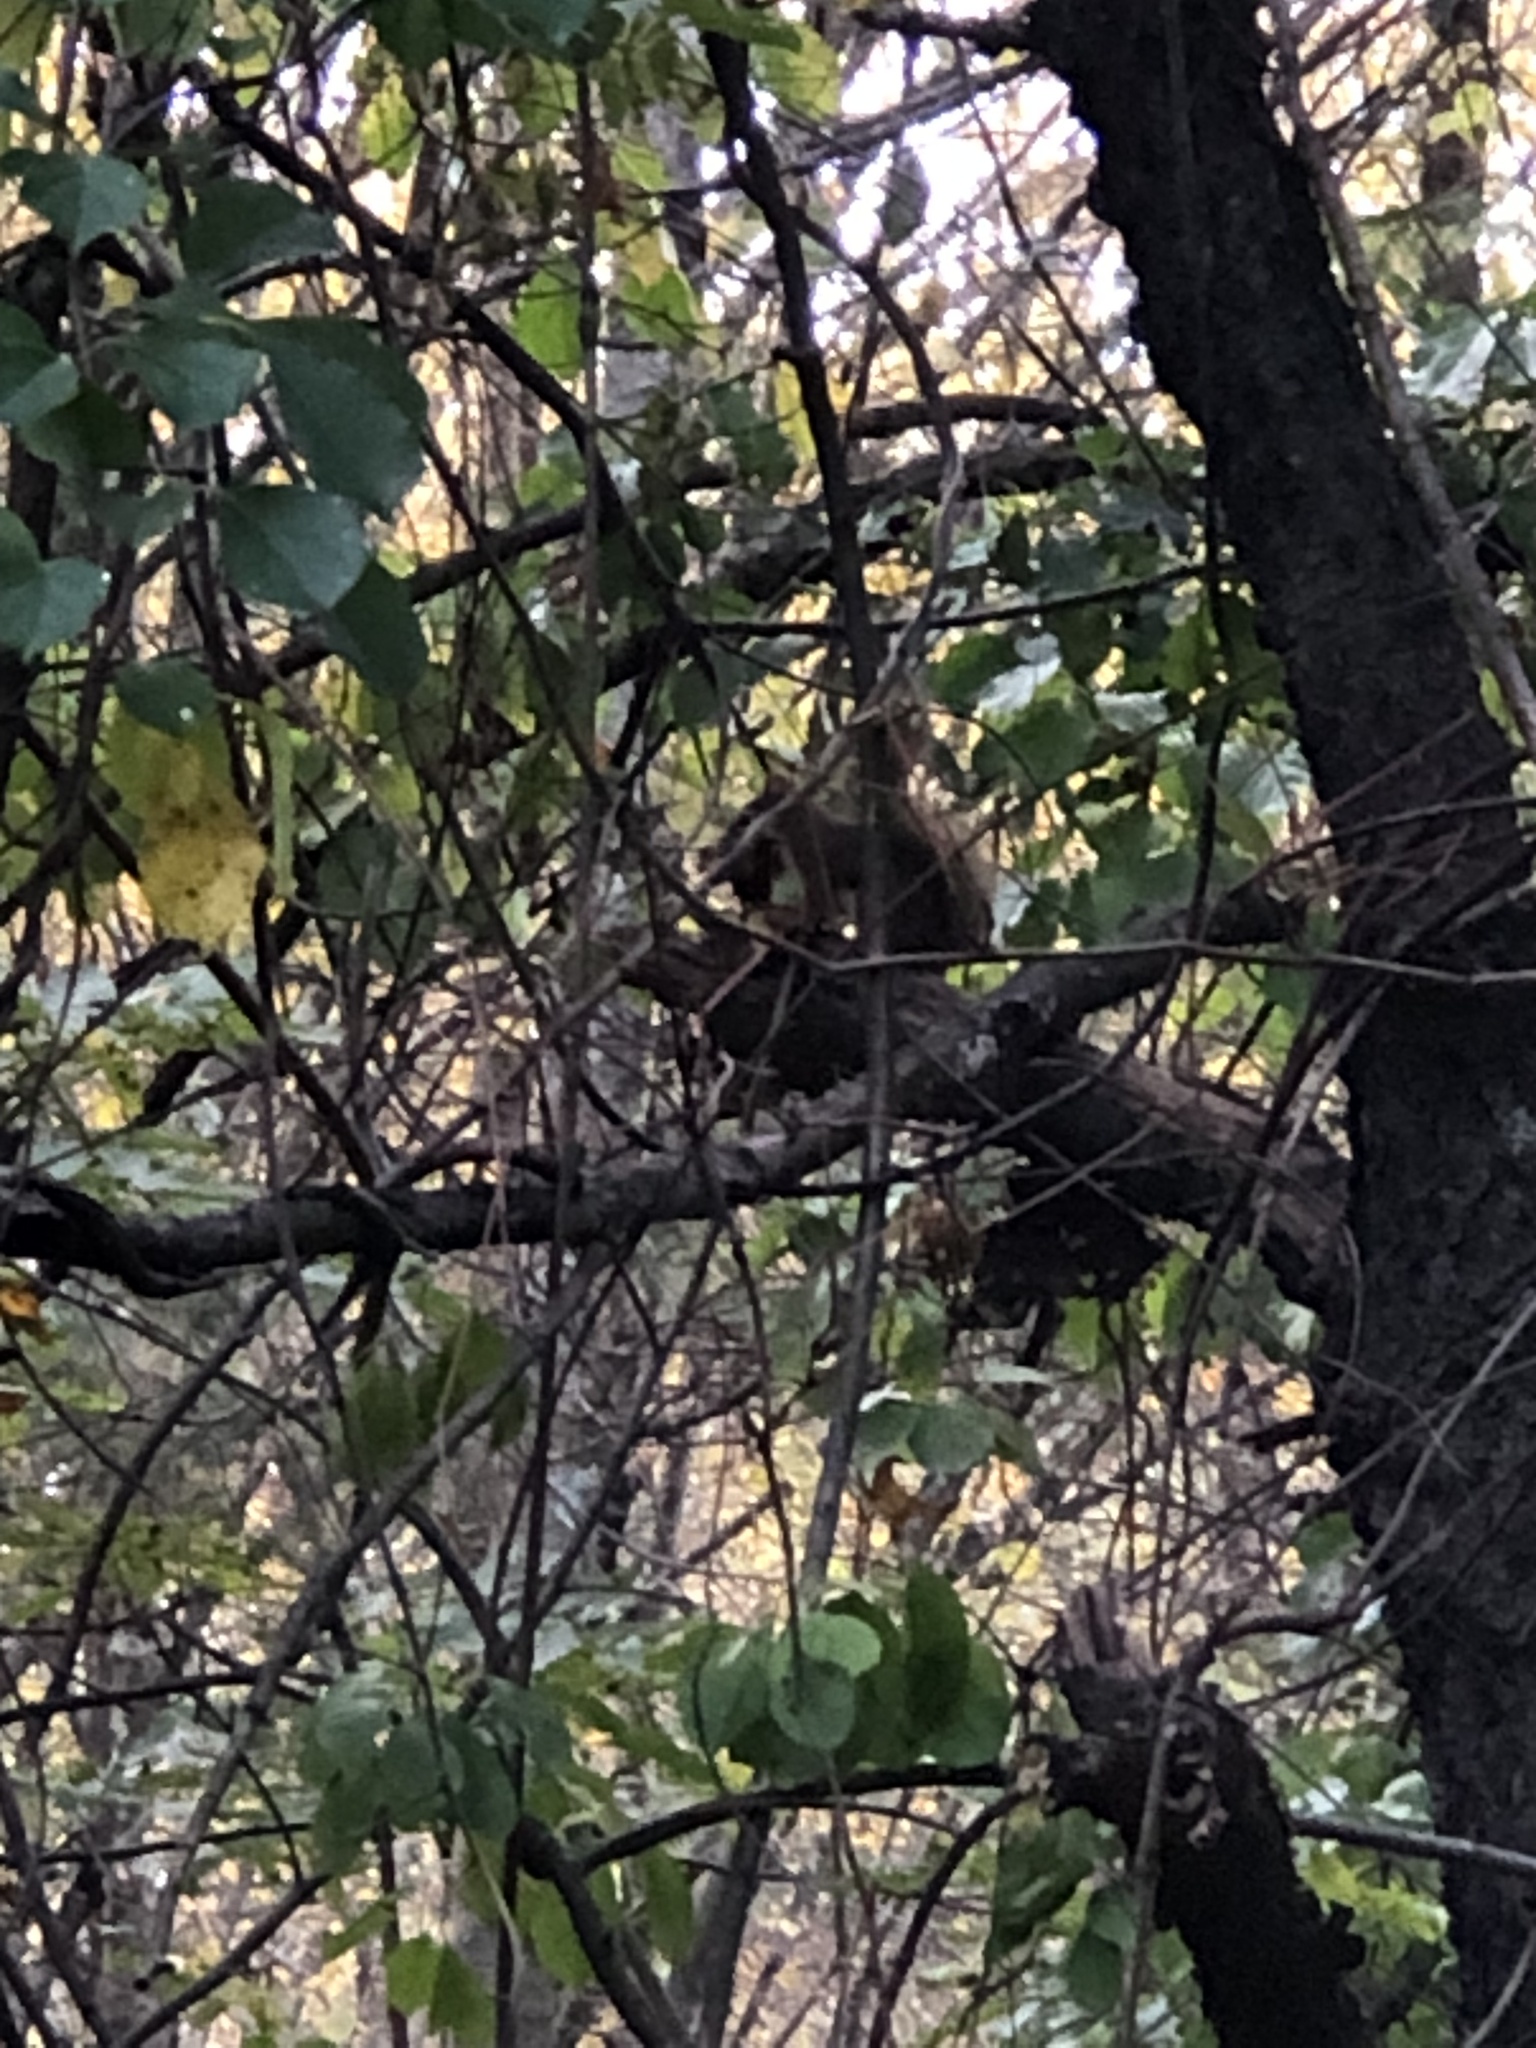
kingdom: Animalia
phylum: Chordata
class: Mammalia
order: Rodentia
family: Sciuridae
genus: Tamiasciurus
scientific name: Tamiasciurus hudsonicus
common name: Red squirrel
